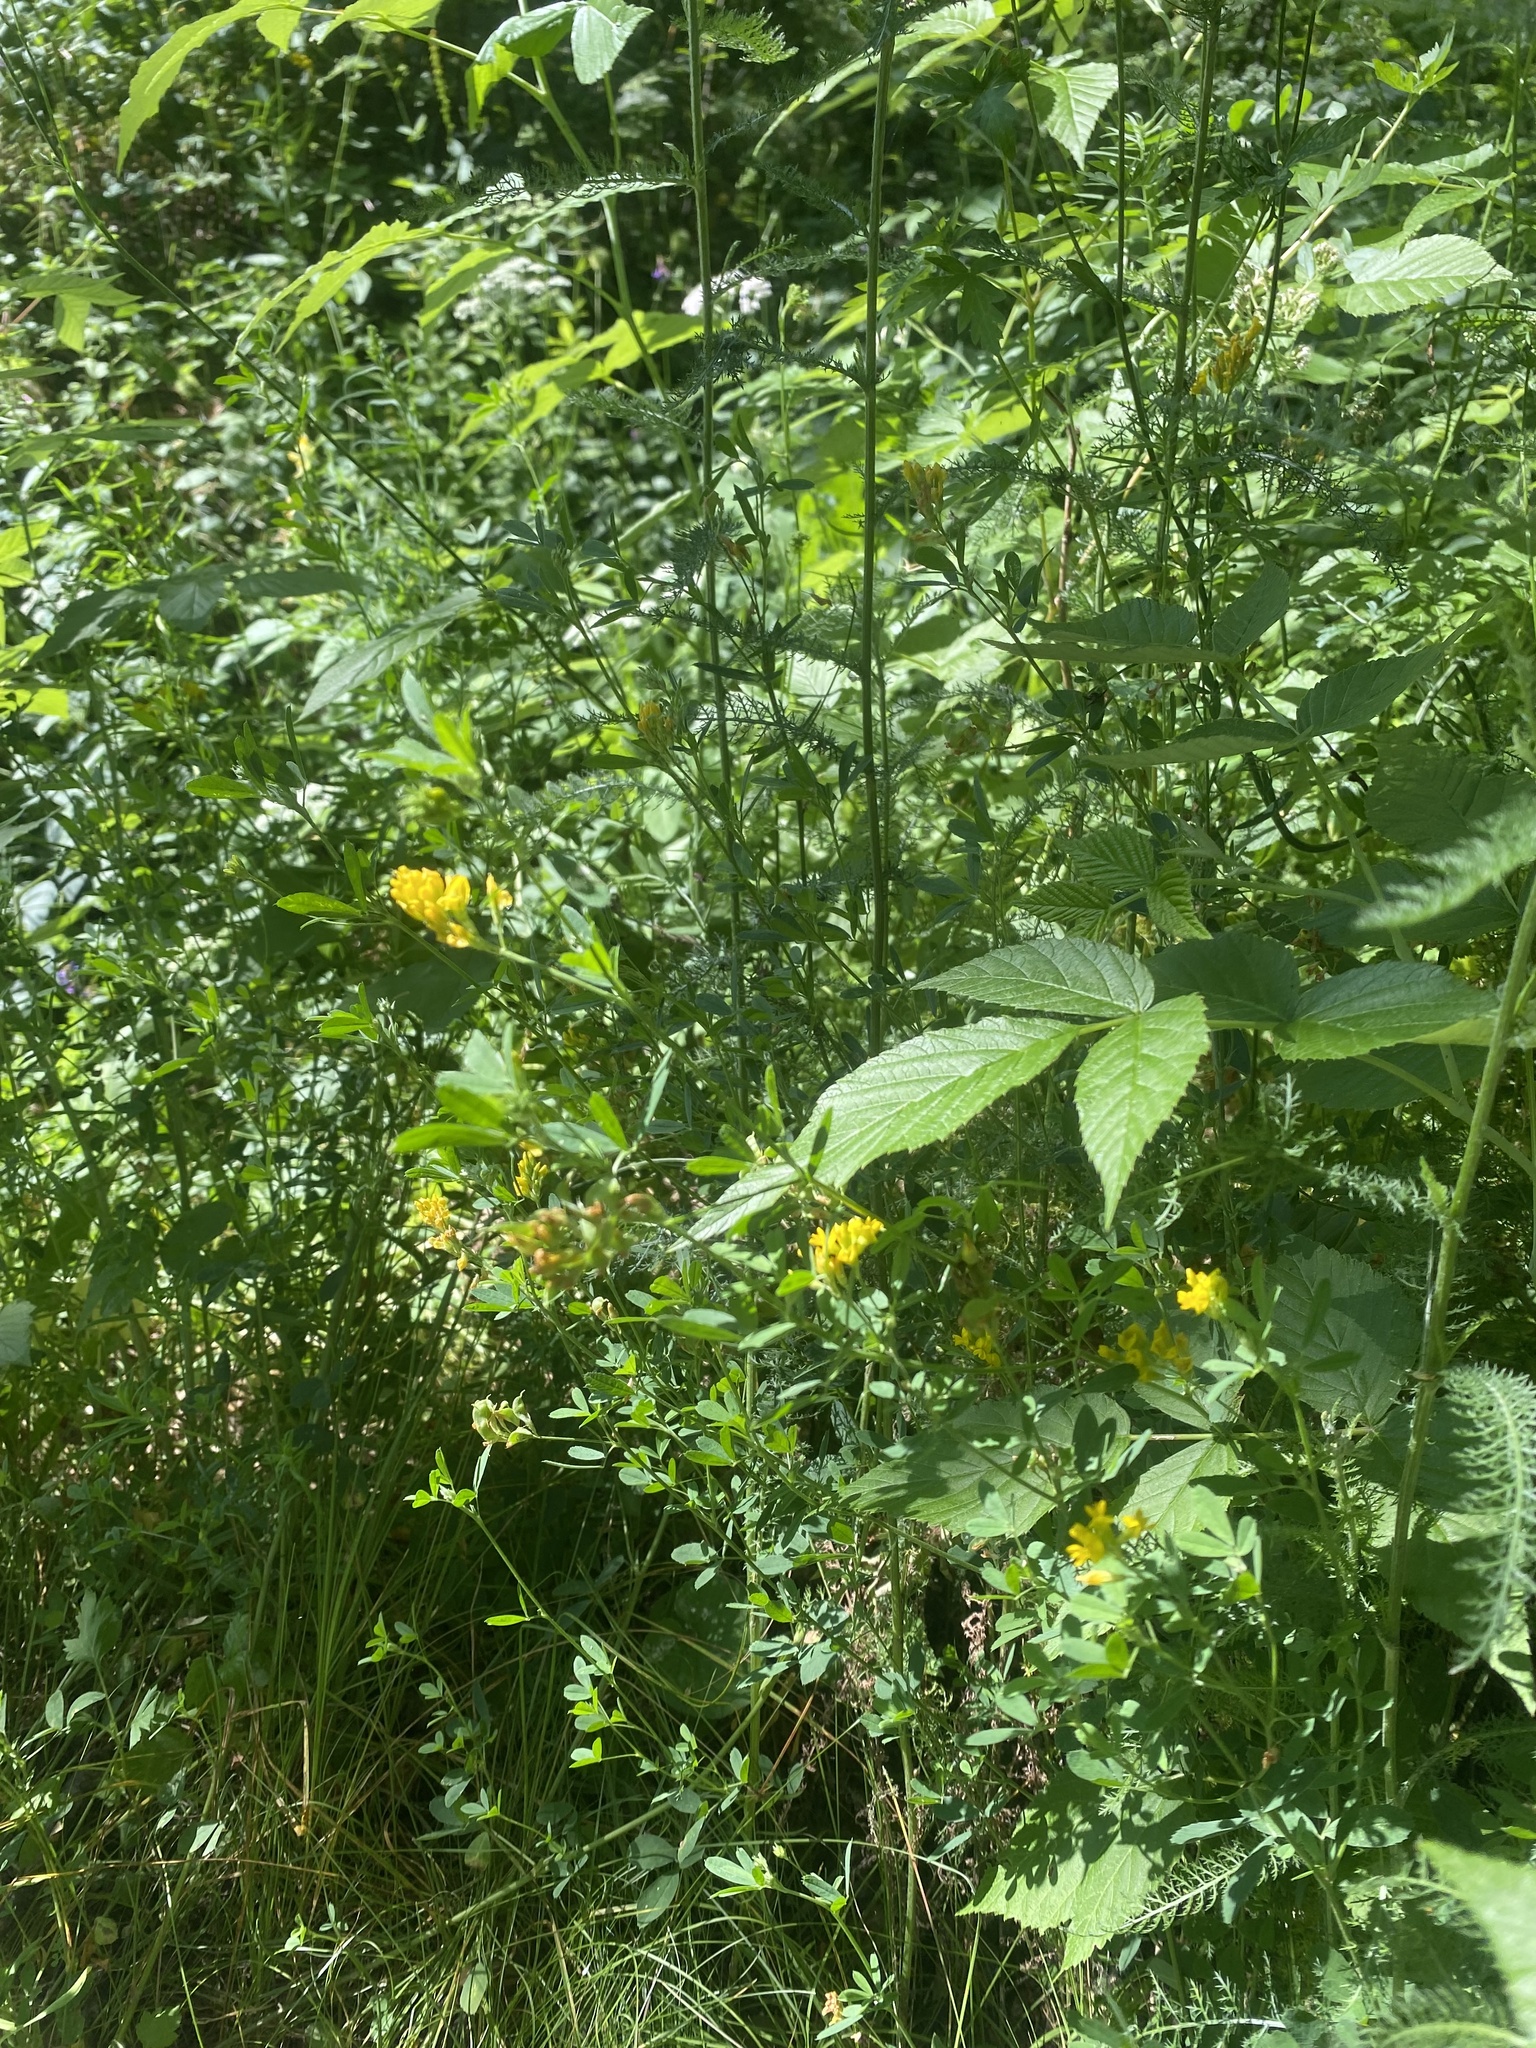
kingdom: Plantae
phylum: Tracheophyta
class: Magnoliopsida
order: Fabales
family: Fabaceae
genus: Medicago
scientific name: Medicago falcata
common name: Sickle medick
